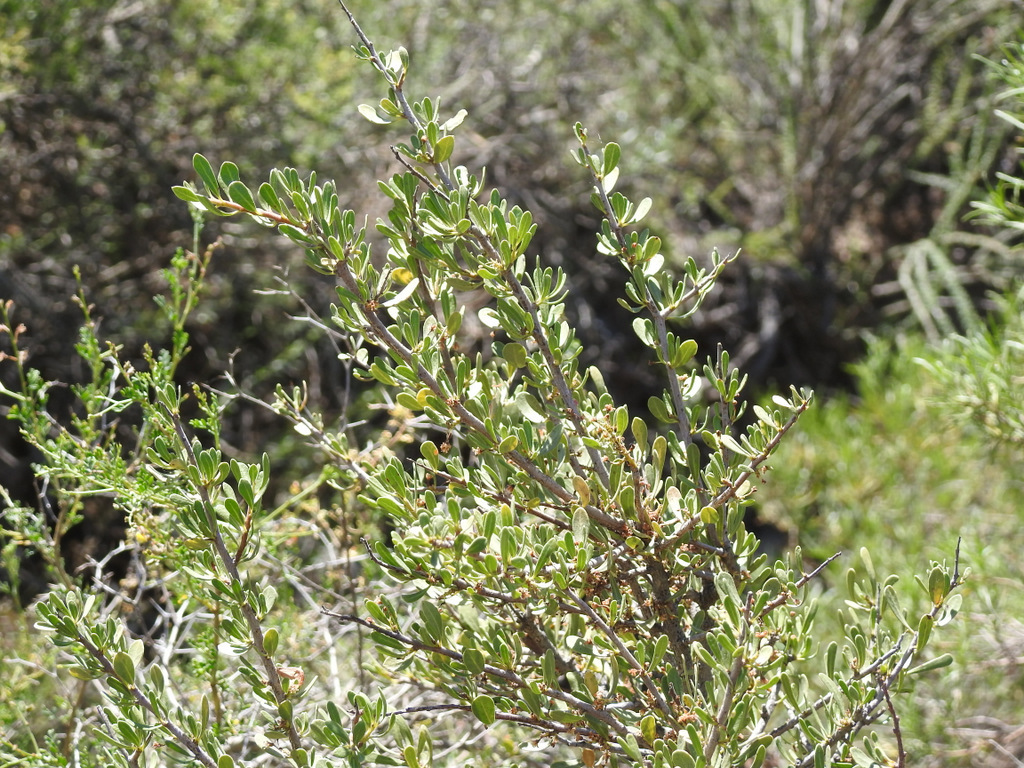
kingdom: Plantae
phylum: Tracheophyta
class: Magnoliopsida
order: Sapindales
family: Anacardiaceae
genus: Schinus
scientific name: Schinus polygama
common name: Hardee peppertree
